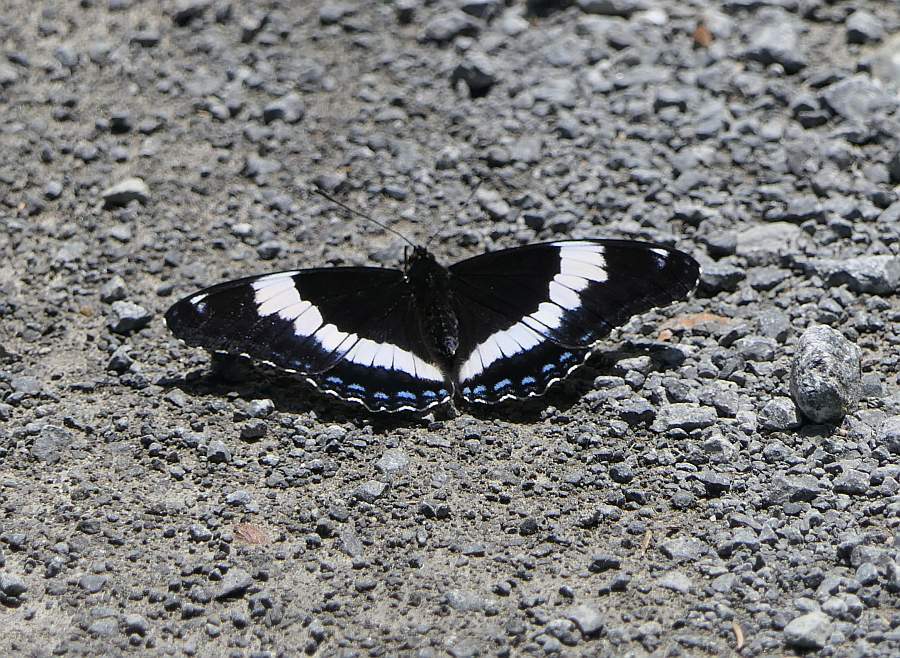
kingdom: Animalia
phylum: Arthropoda
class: Insecta
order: Lepidoptera
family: Nymphalidae
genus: Limenitis
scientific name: Limenitis arthemis
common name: Red-spotted admiral
